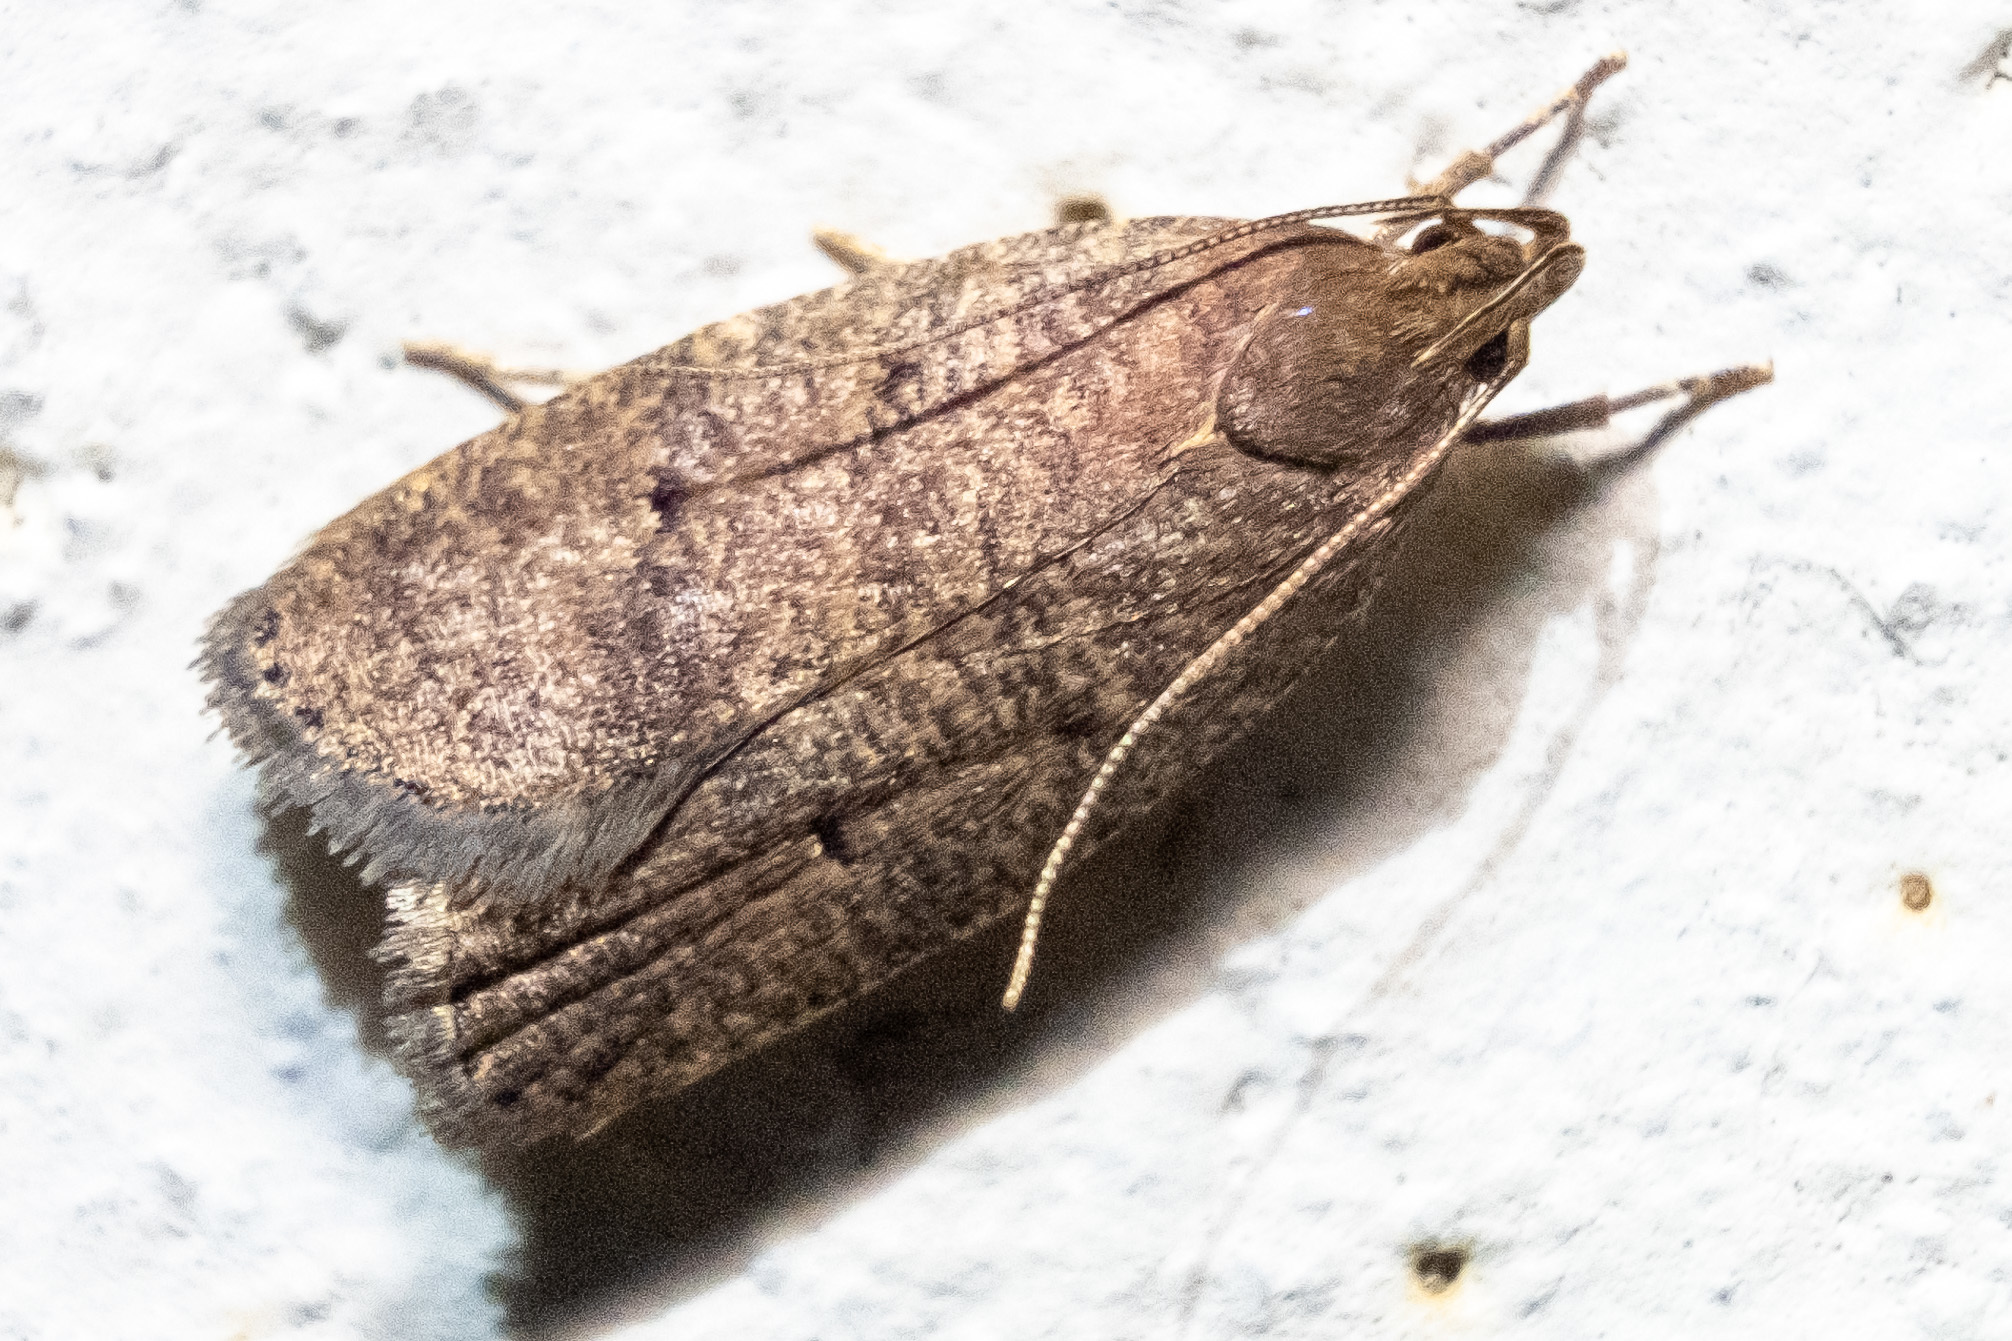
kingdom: Animalia
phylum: Arthropoda
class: Insecta
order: Lepidoptera
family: Depressariidae
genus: Psilocorsis
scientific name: Psilocorsis reflexella
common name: Dotted leaftier moth
